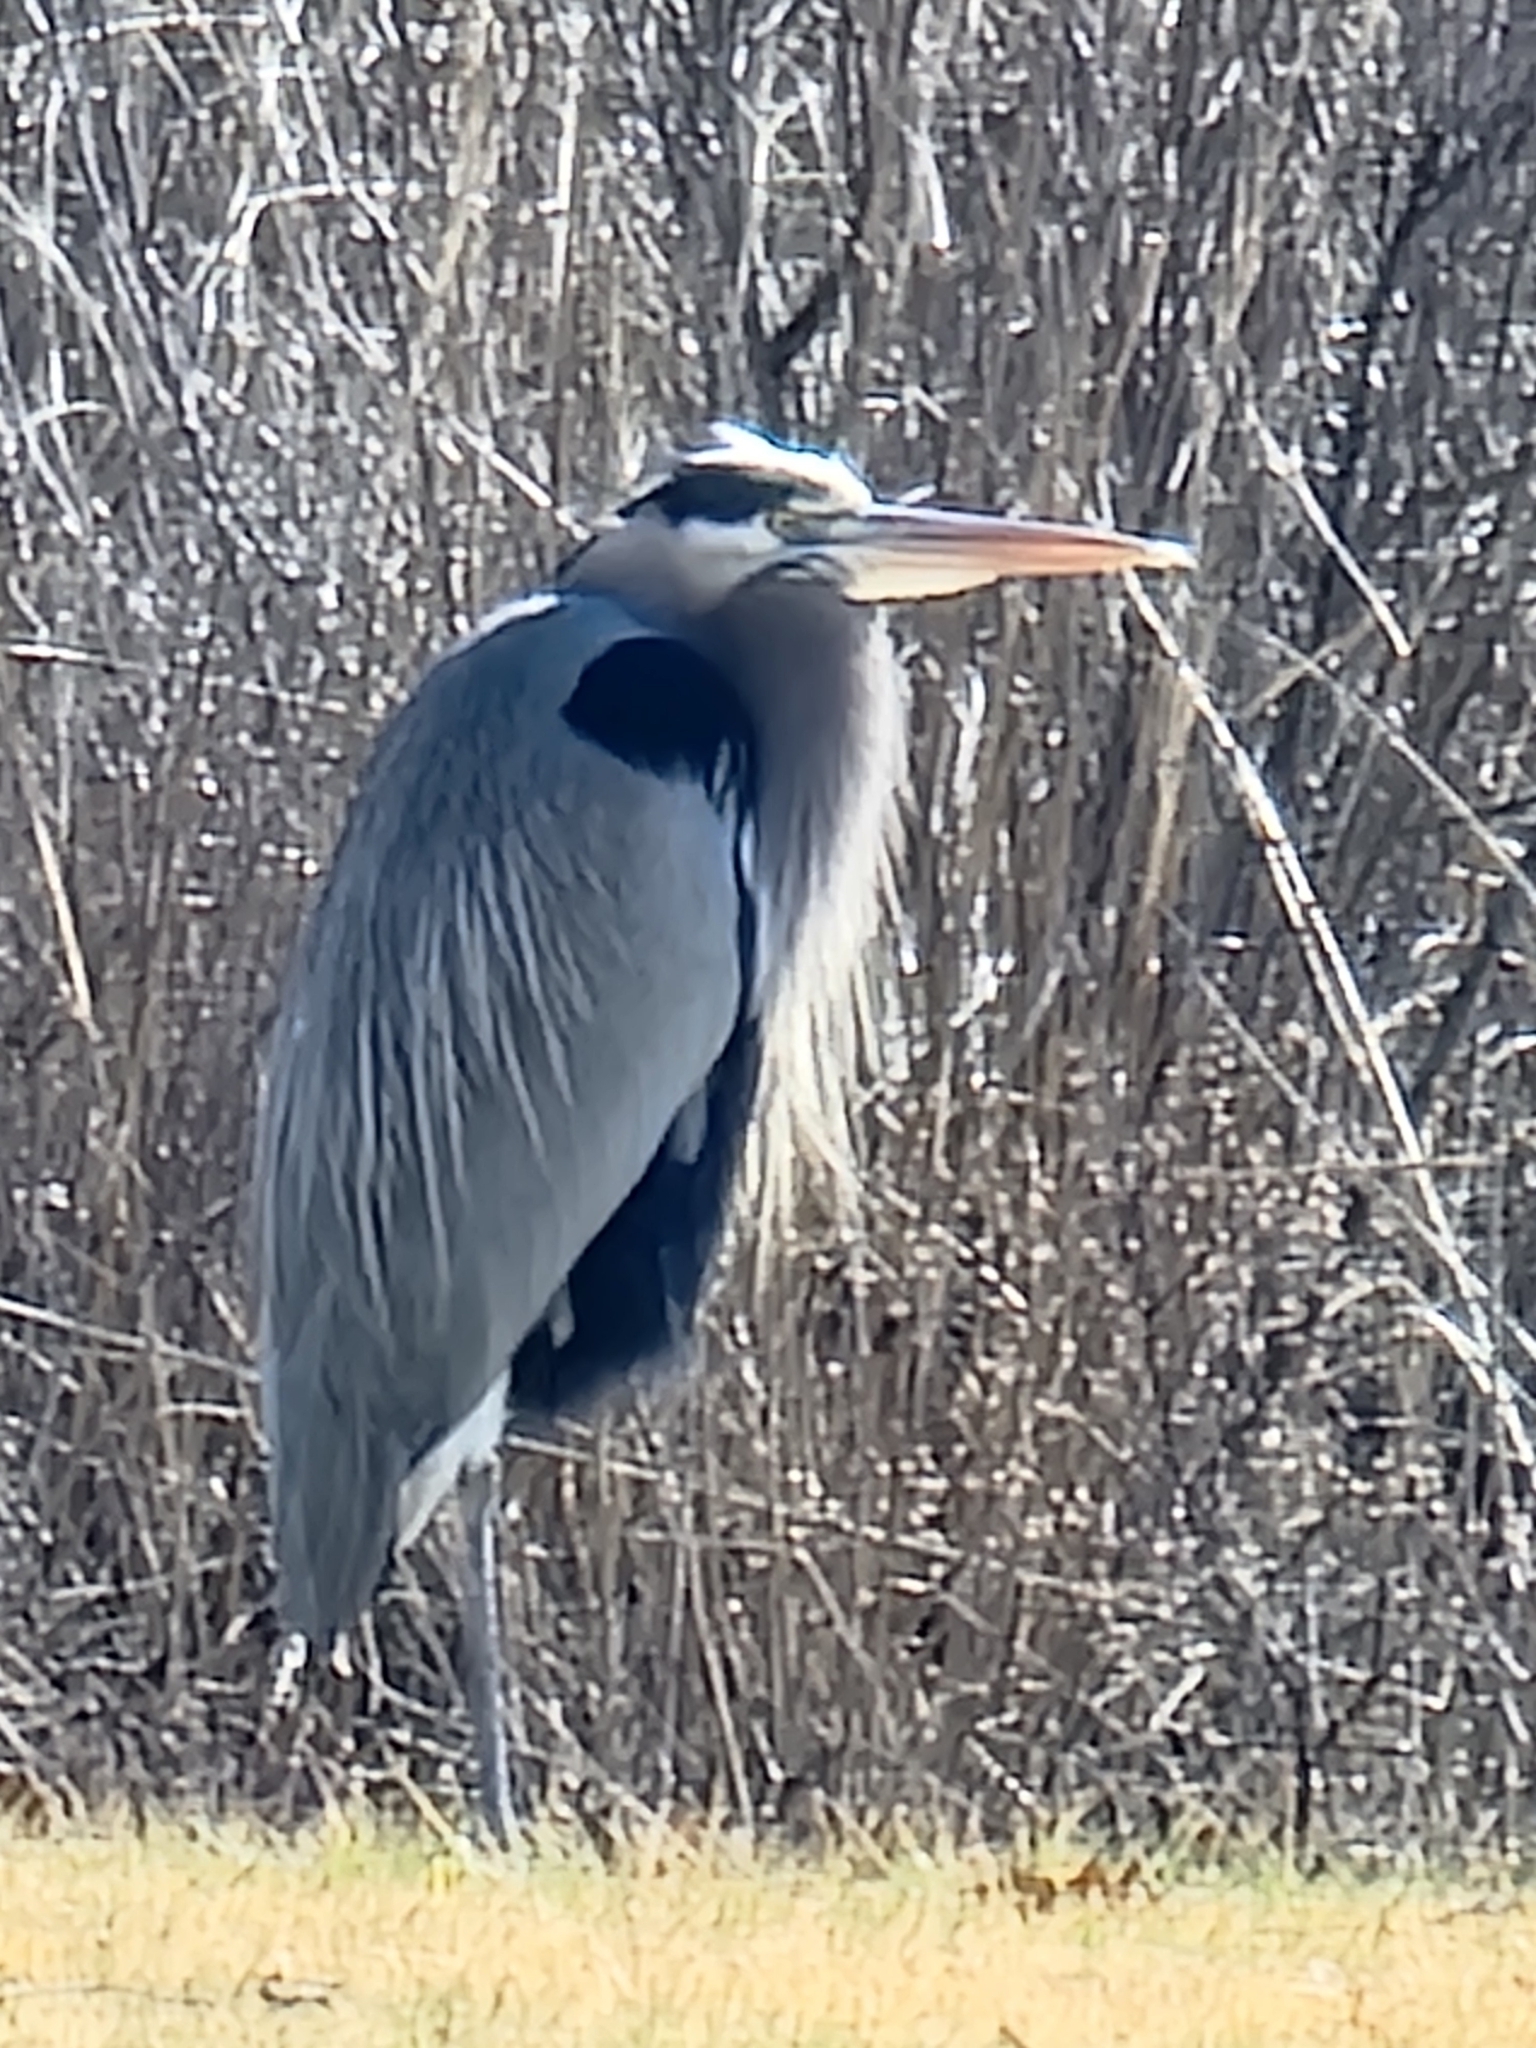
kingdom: Animalia
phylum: Chordata
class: Aves
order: Pelecaniformes
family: Ardeidae
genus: Ardea
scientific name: Ardea herodias
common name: Great blue heron
